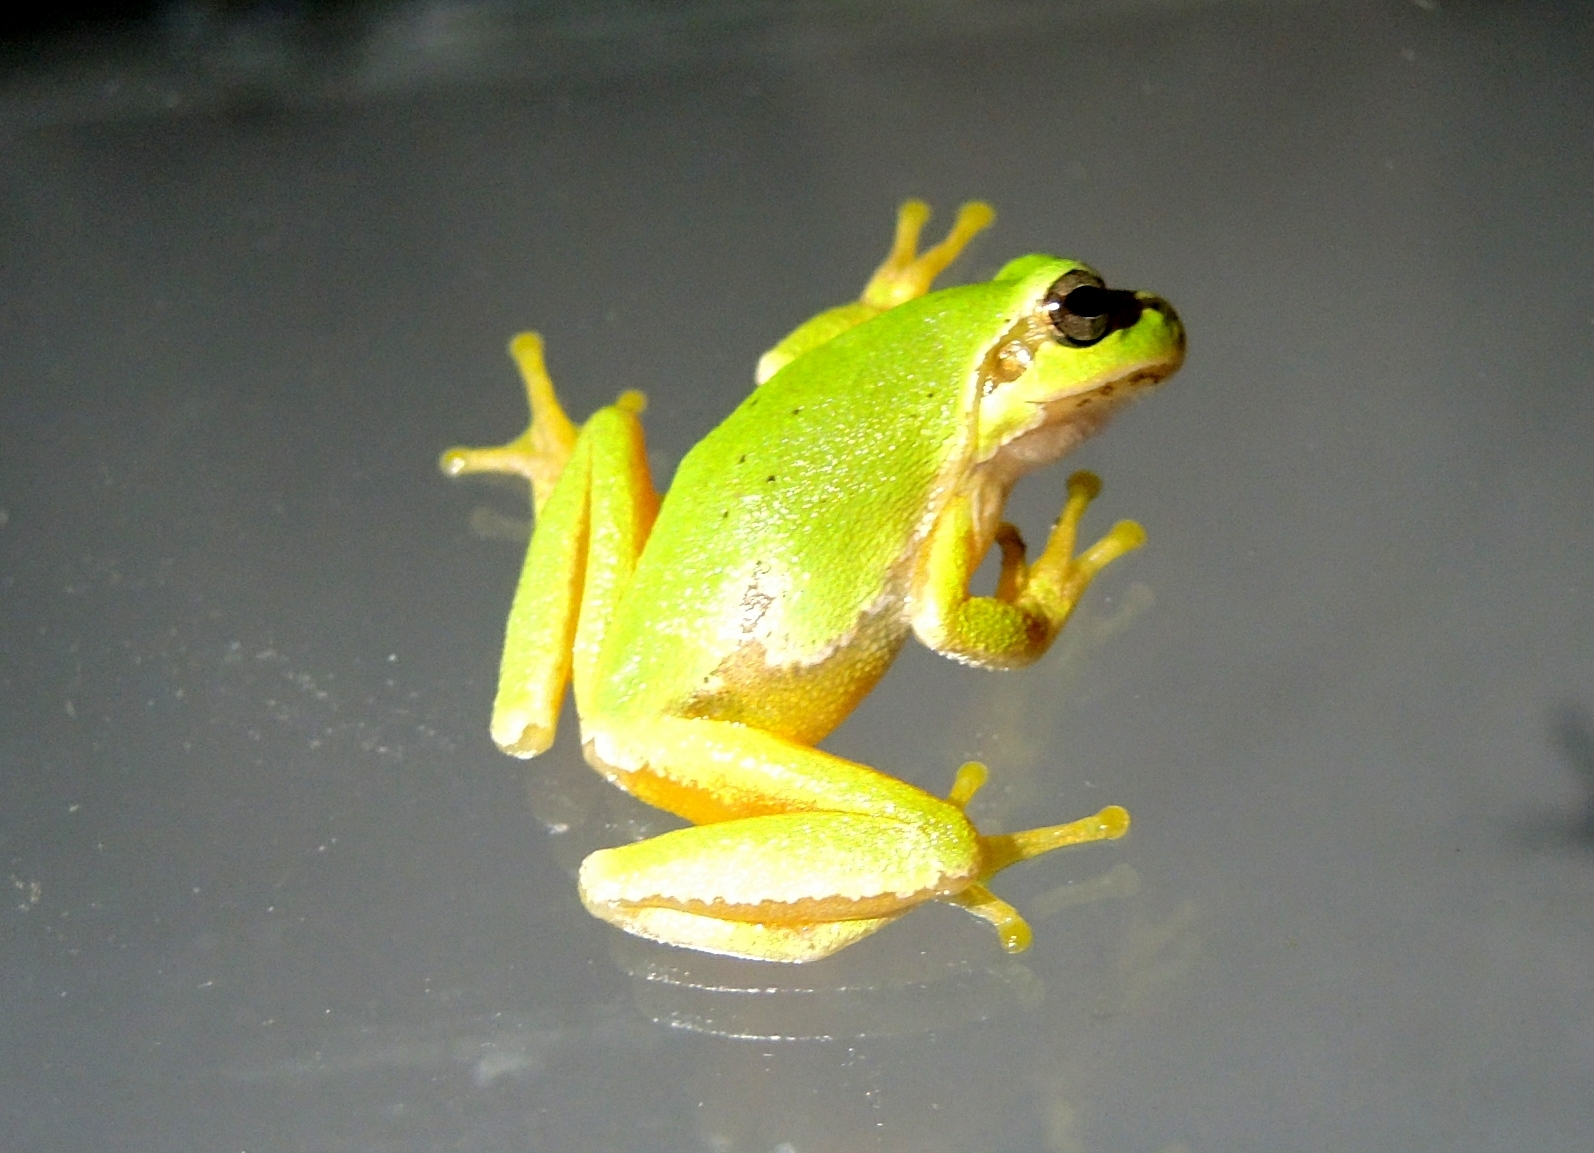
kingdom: Animalia
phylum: Chordata
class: Amphibia
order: Anura
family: Hylidae
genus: Hyla
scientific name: Hyla orientalis
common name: Caucasian treefrog
